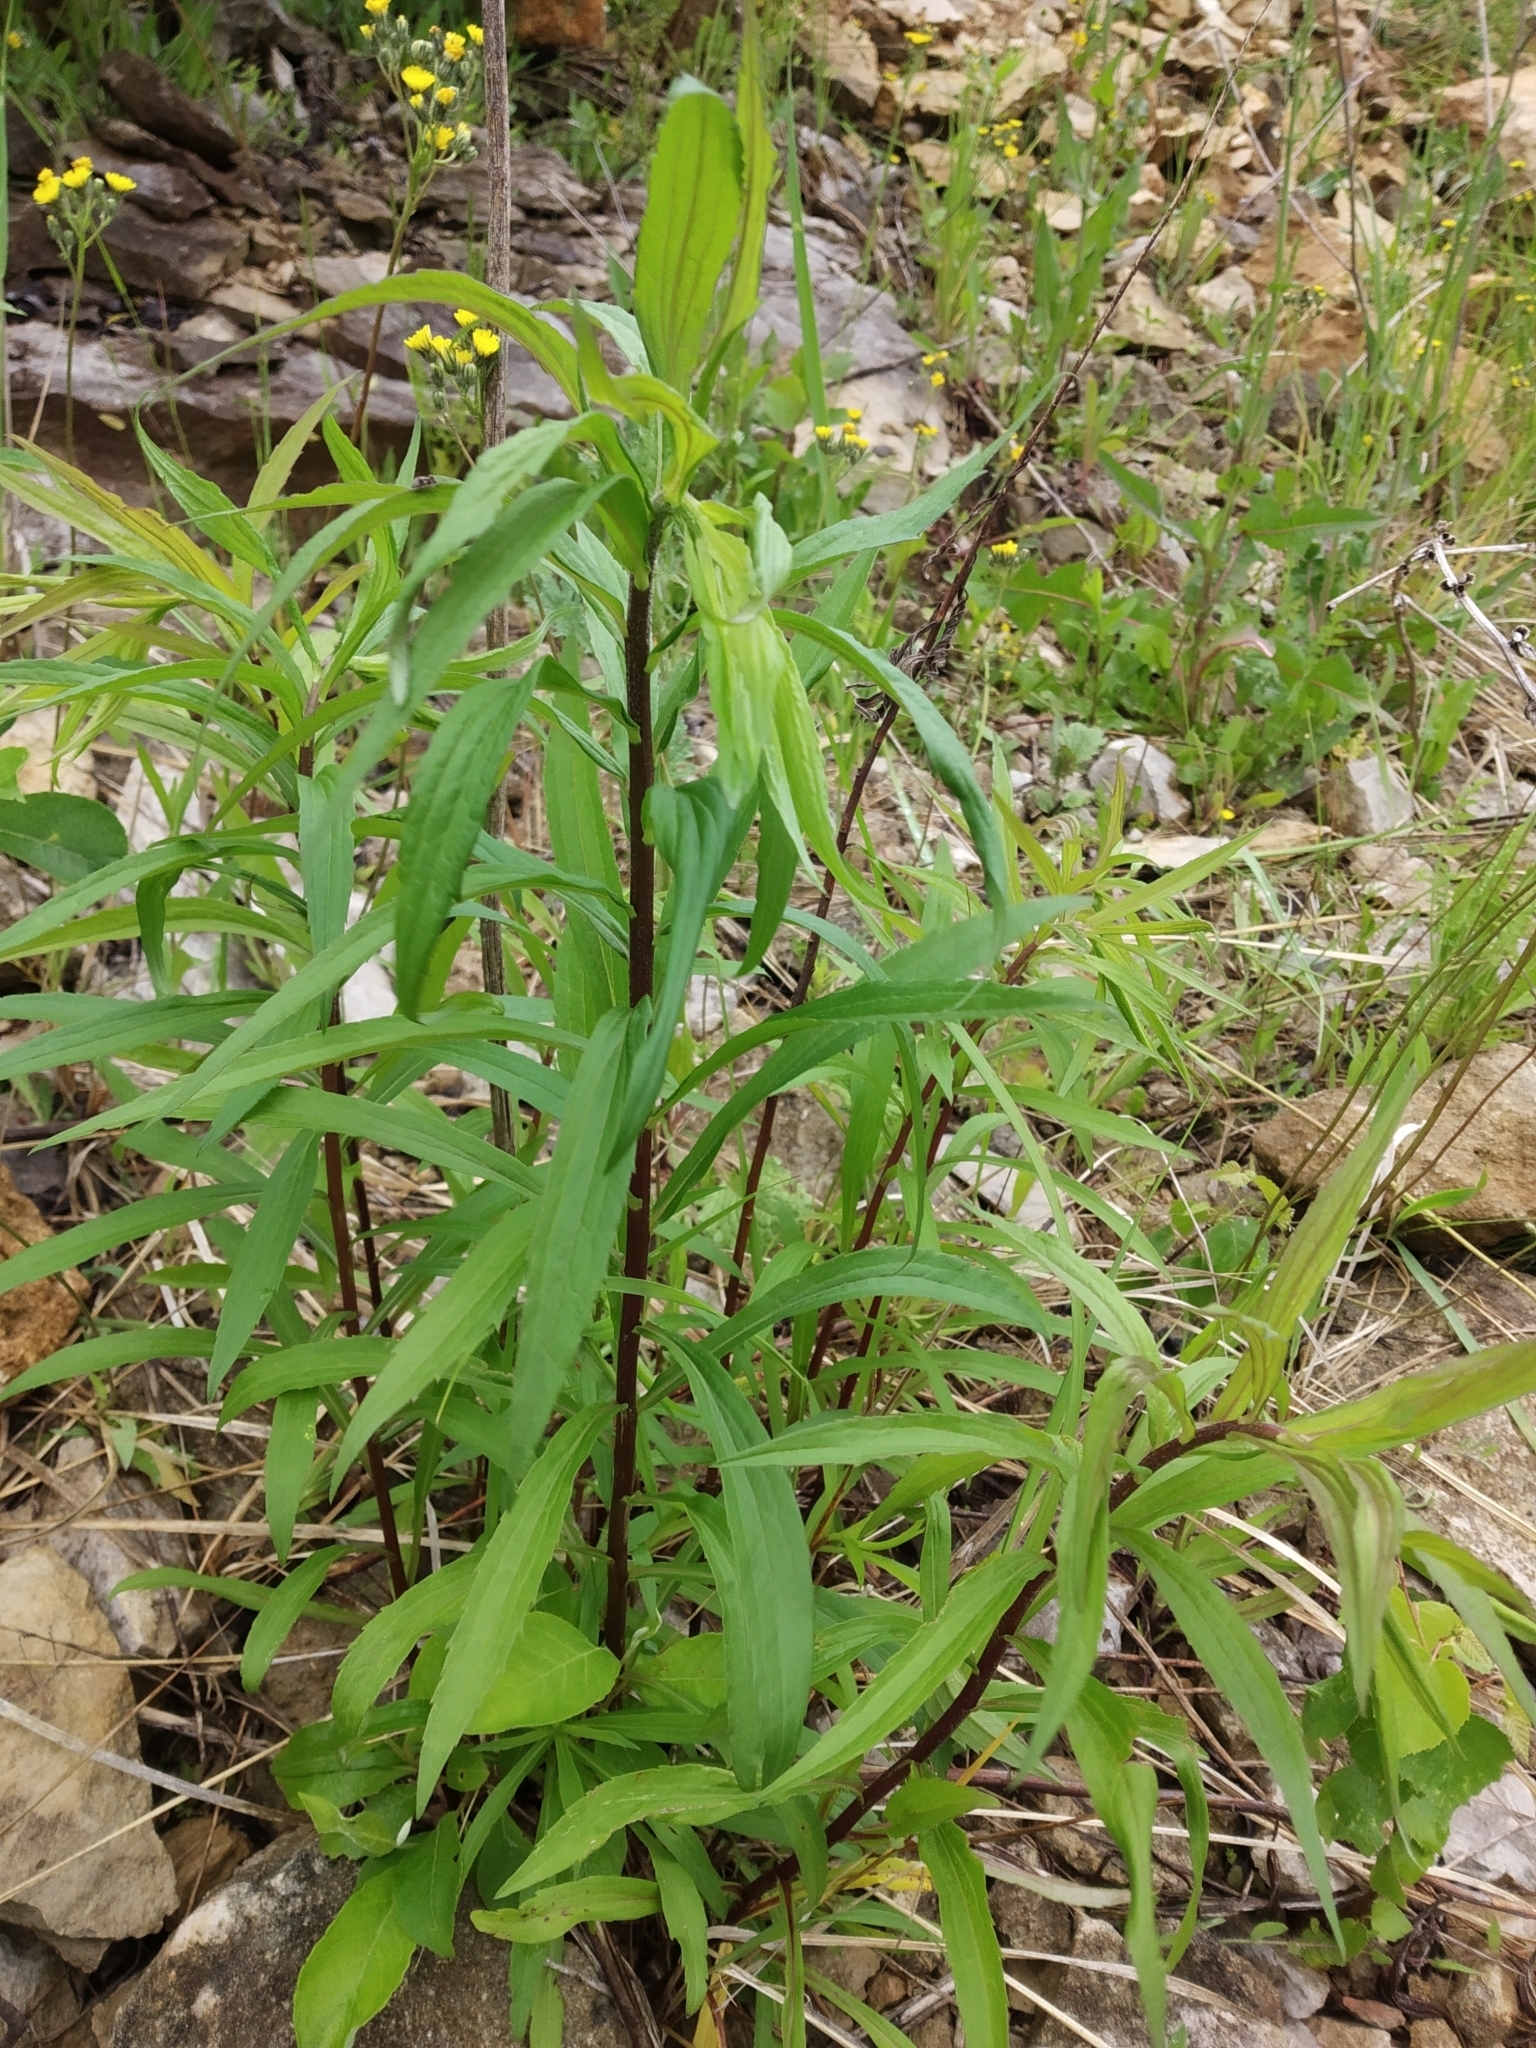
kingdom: Plantae
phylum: Tracheophyta
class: Magnoliopsida
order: Asterales
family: Asteraceae
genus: Solidago
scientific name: Solidago canadensis
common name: Canada goldenrod
